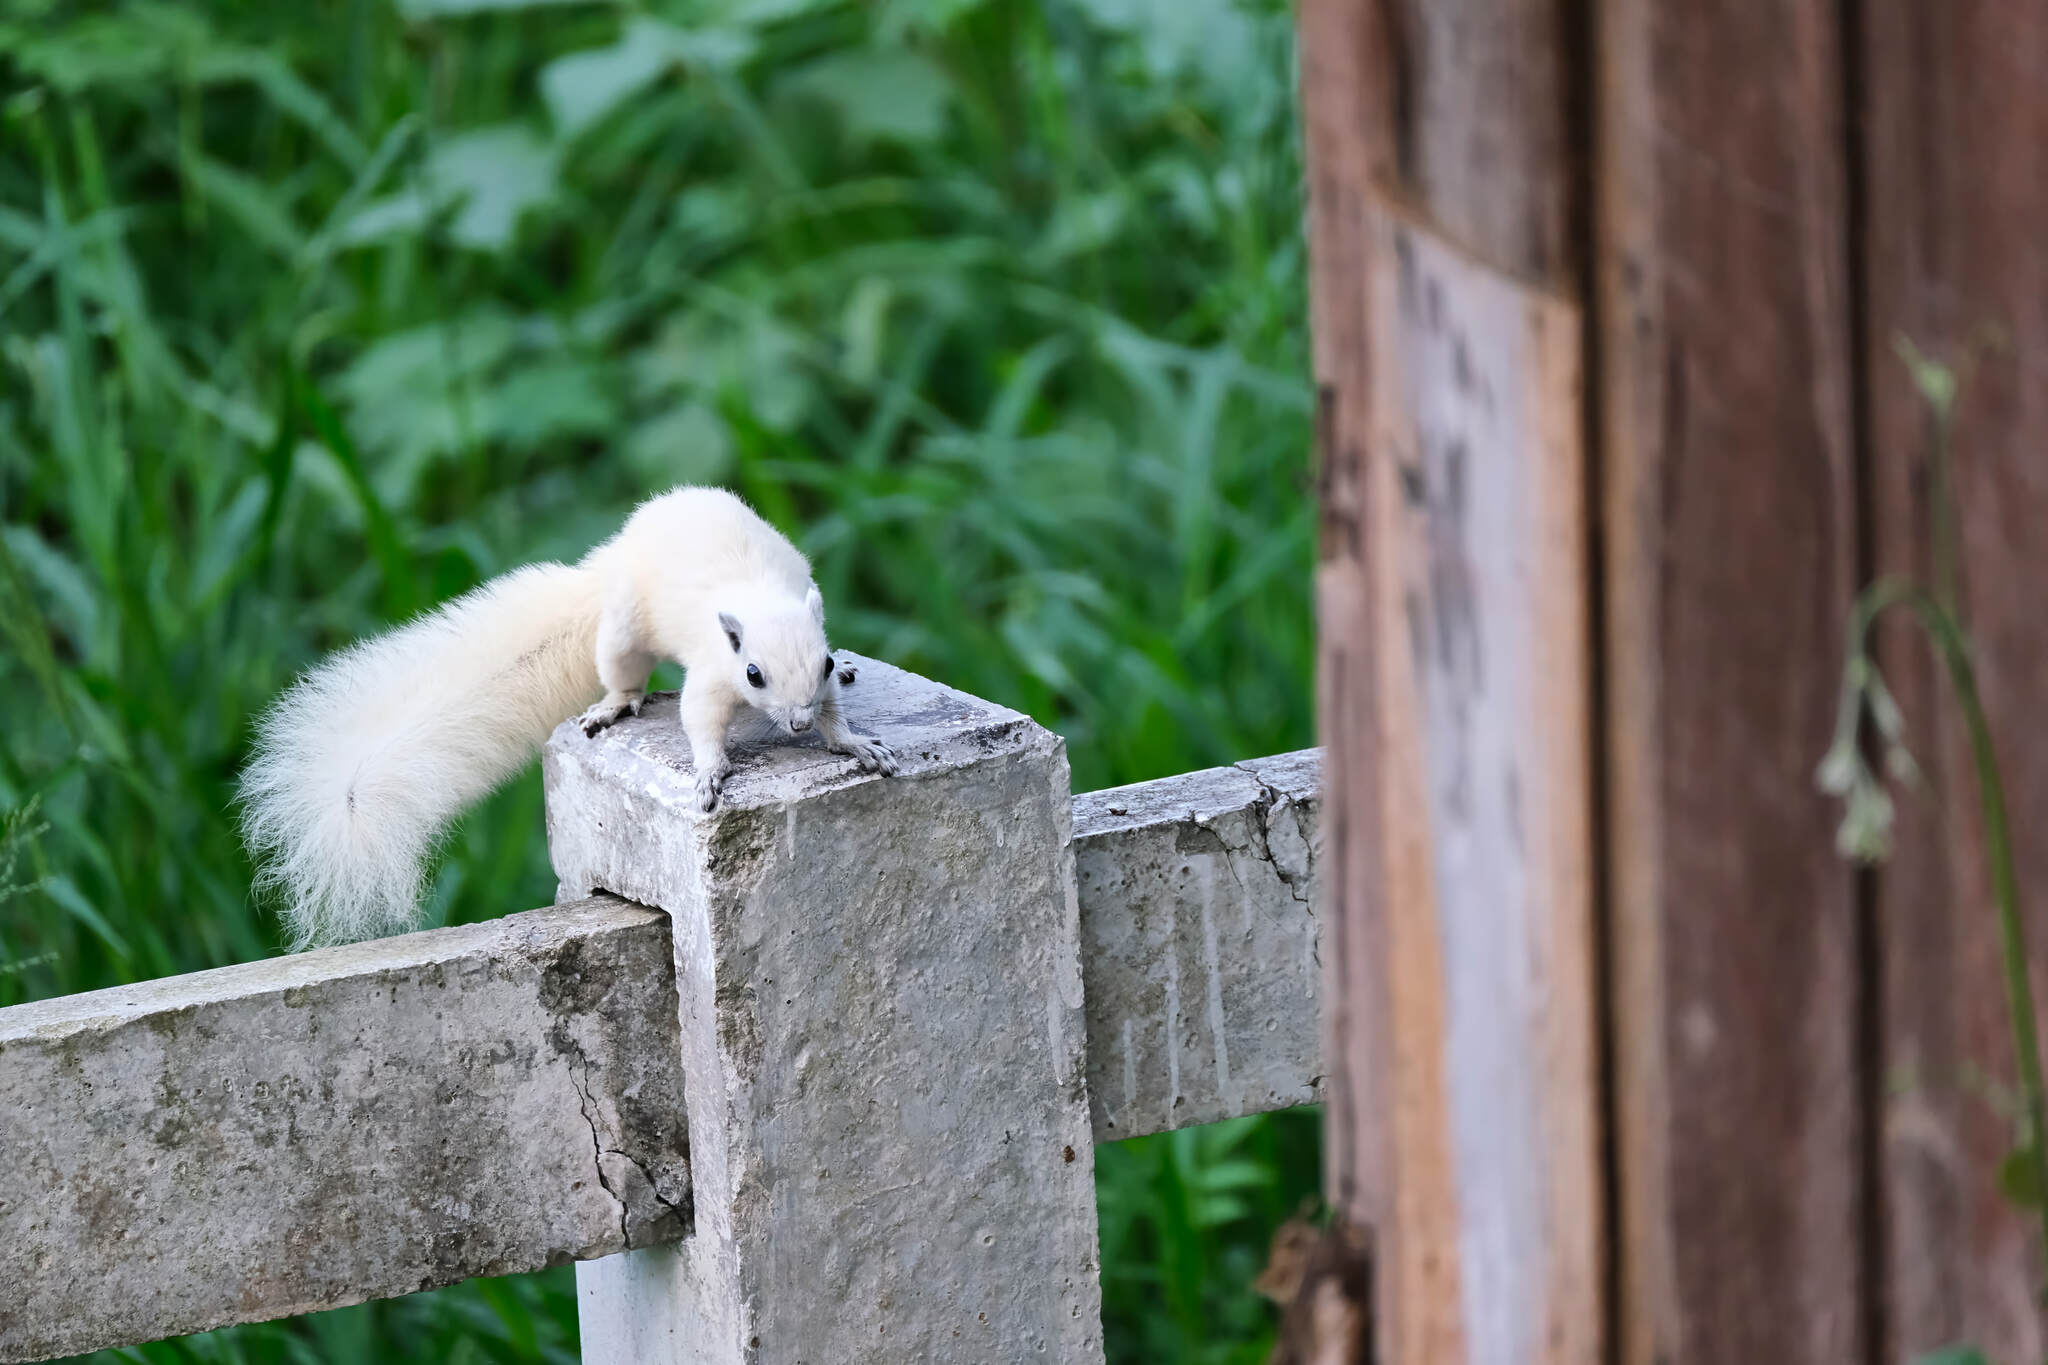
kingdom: Animalia
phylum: Chordata
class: Mammalia
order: Rodentia
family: Sciuridae
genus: Callosciurus
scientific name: Callosciurus finlaysonii
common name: Finlayson's squirrel
